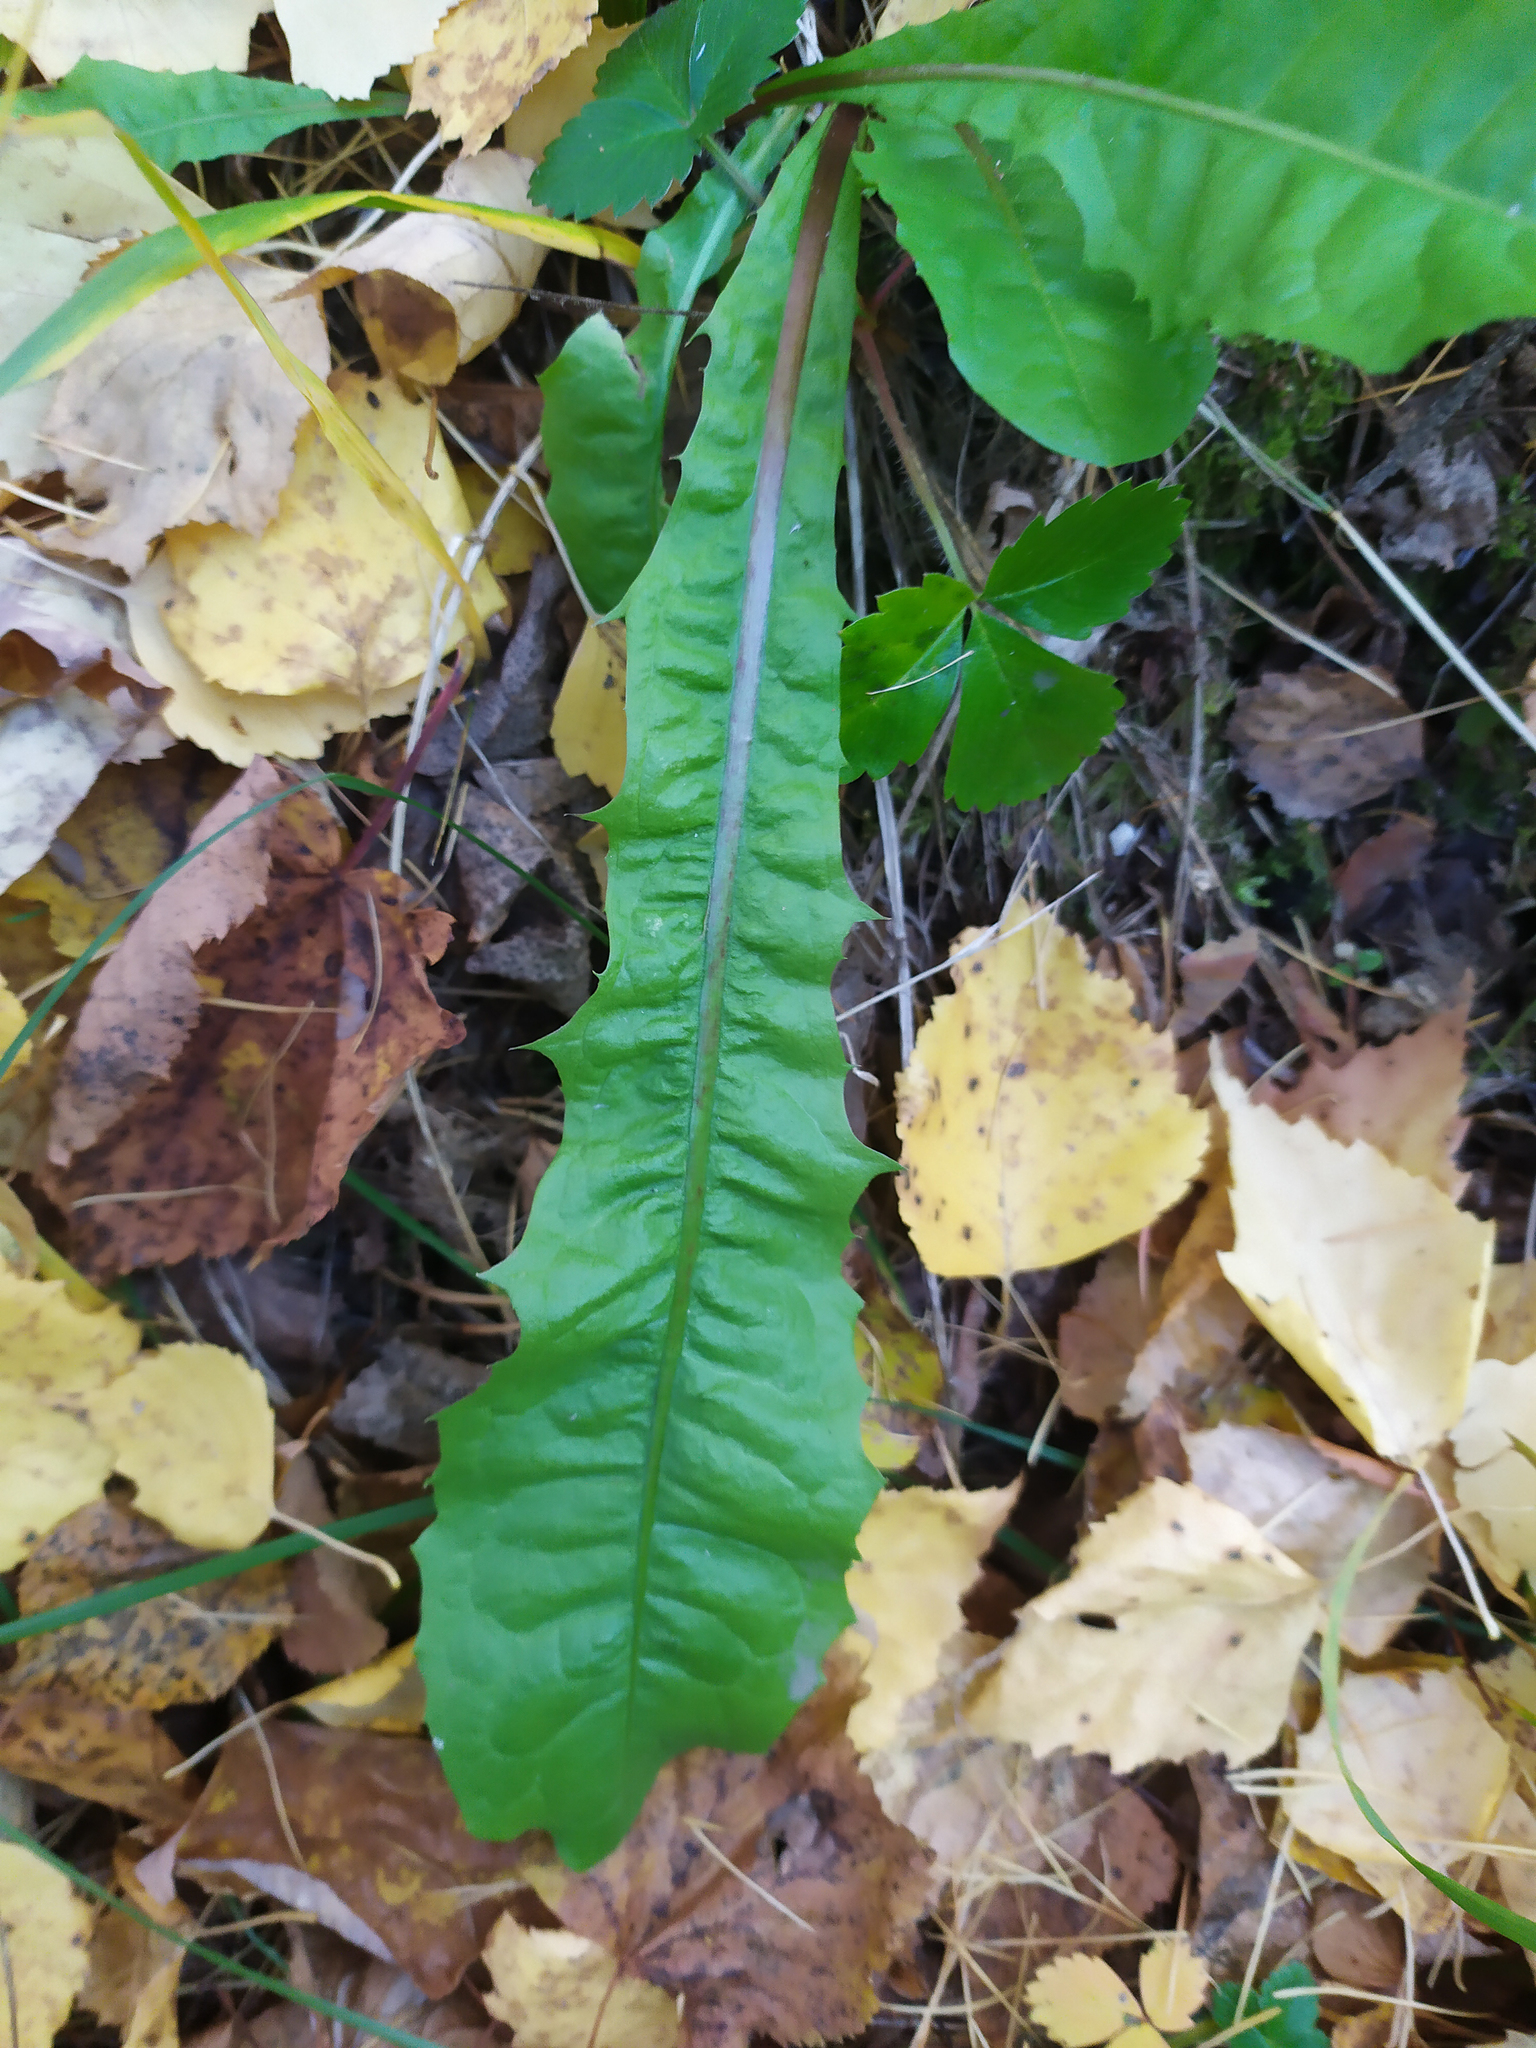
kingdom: Plantae
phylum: Tracheophyta
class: Magnoliopsida
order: Asterales
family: Asteraceae
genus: Taraxacum
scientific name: Taraxacum officinale
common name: Common dandelion
